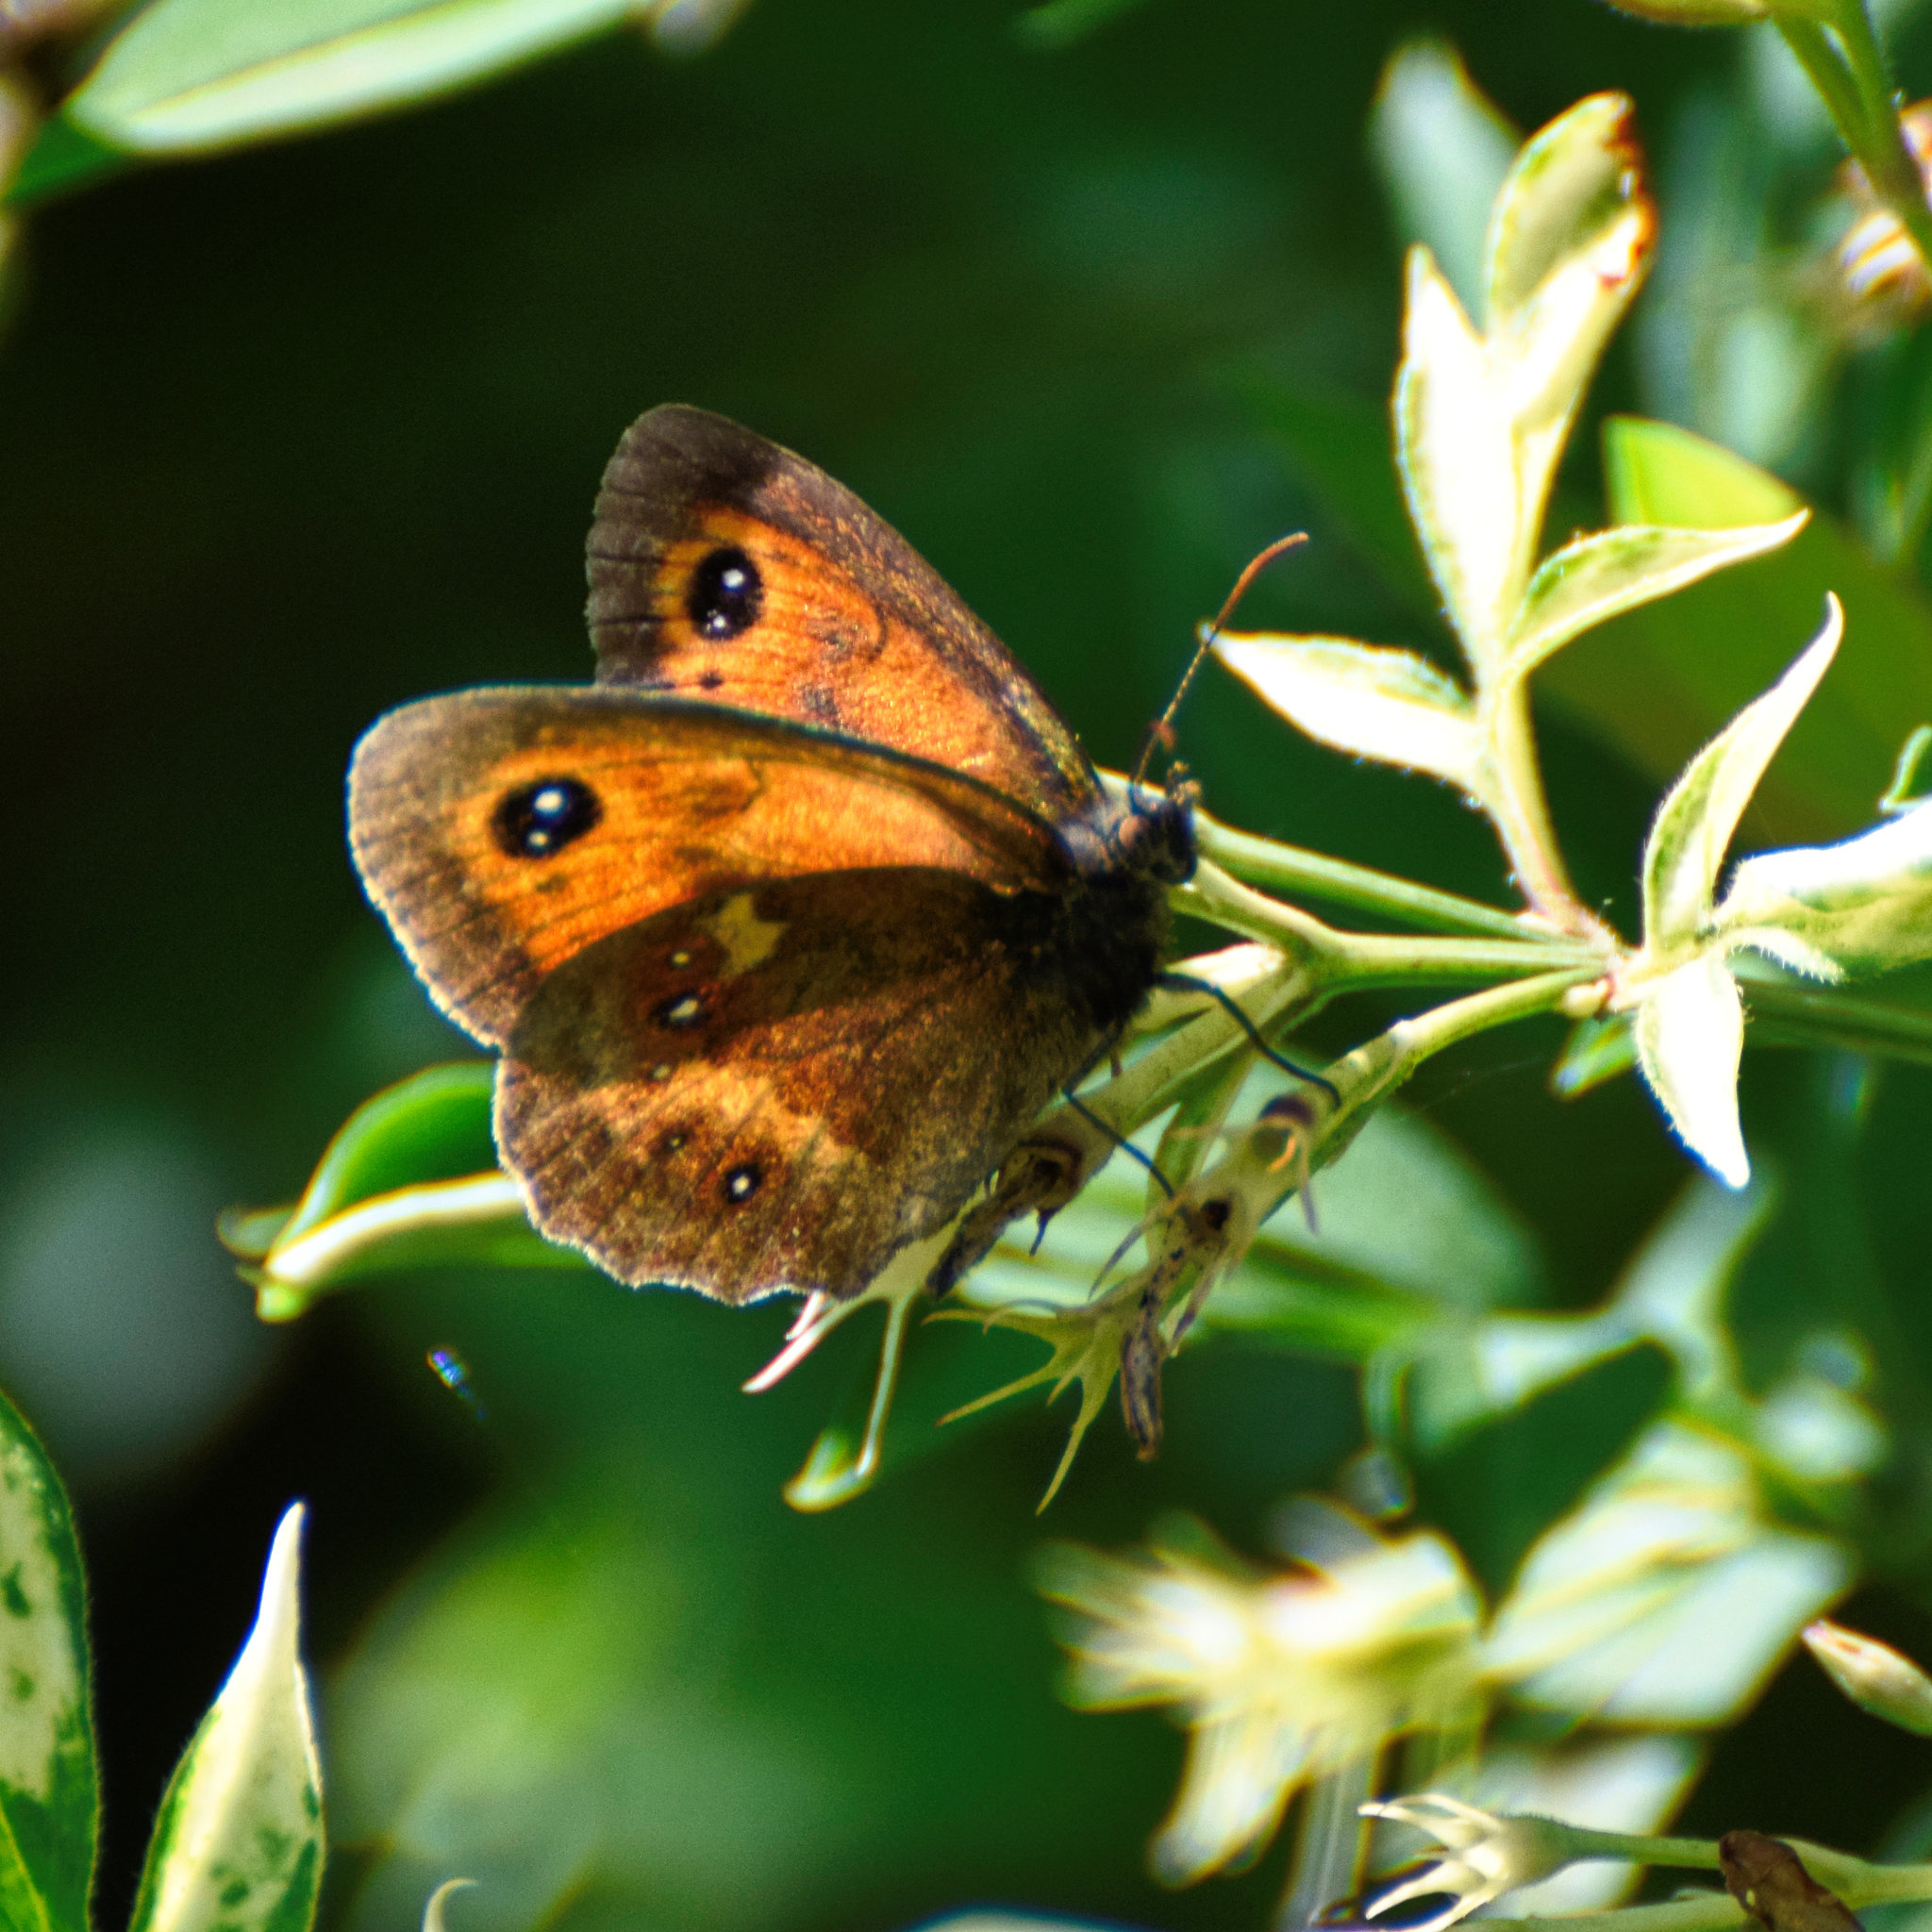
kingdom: Animalia
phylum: Arthropoda
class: Insecta
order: Lepidoptera
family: Nymphalidae
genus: Pyronia
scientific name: Pyronia tithonus
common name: Gatekeeper
